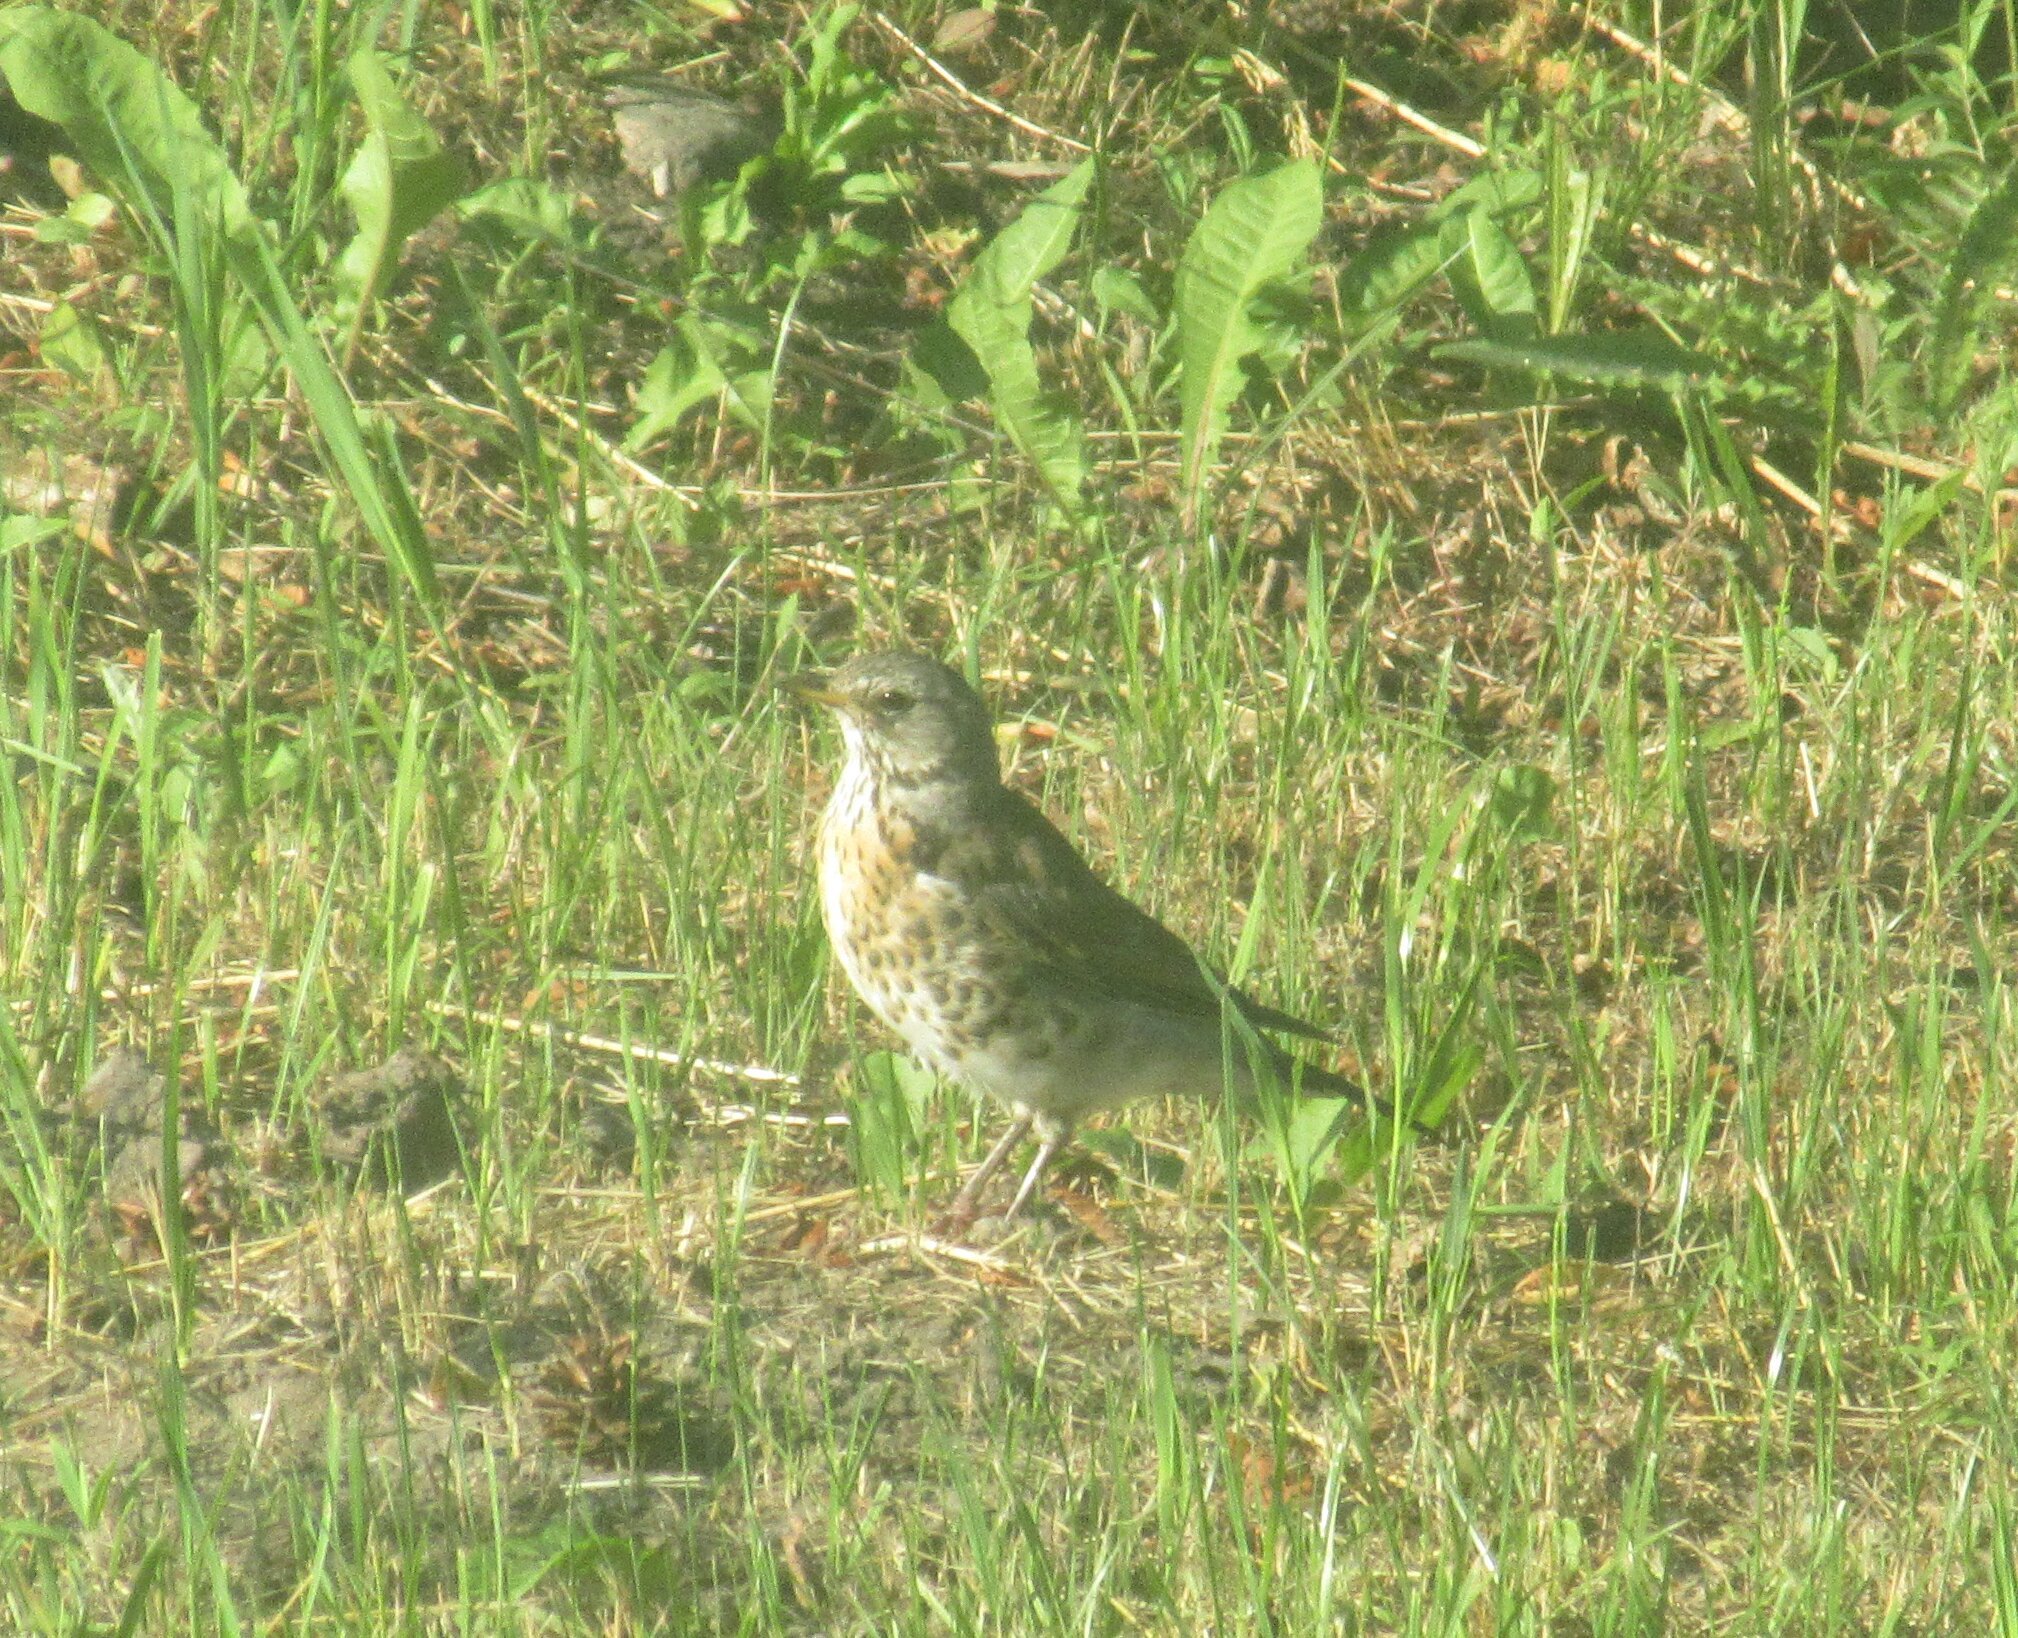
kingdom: Animalia
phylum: Chordata
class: Aves
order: Passeriformes
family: Turdidae
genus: Turdus
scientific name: Turdus pilaris
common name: Fieldfare
